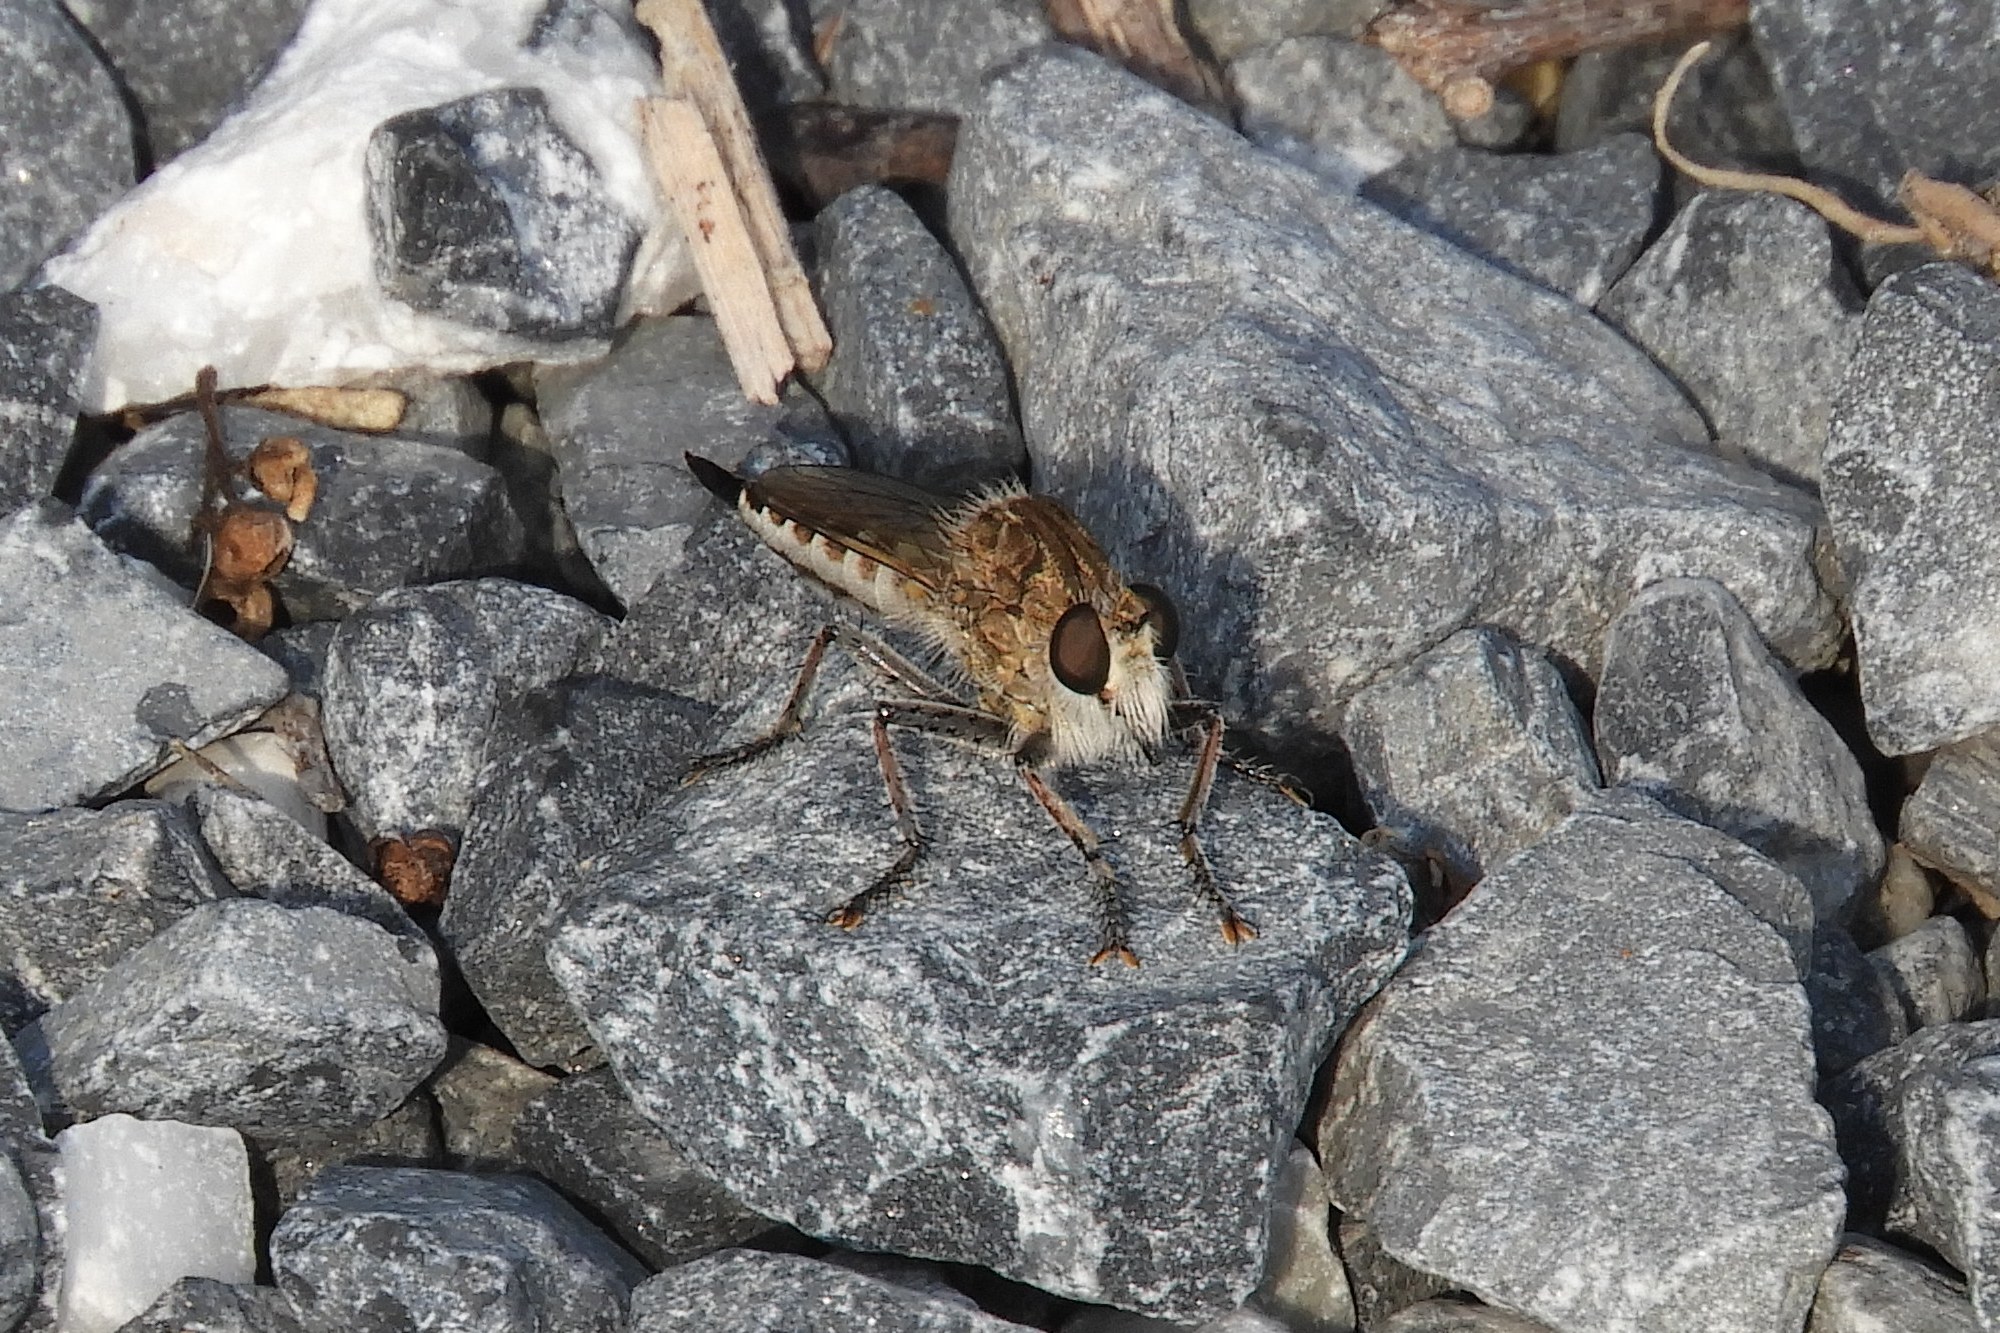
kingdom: Animalia
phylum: Arthropoda
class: Insecta
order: Diptera
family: Asilidae
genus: Efferia
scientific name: Efferia albibarbis
